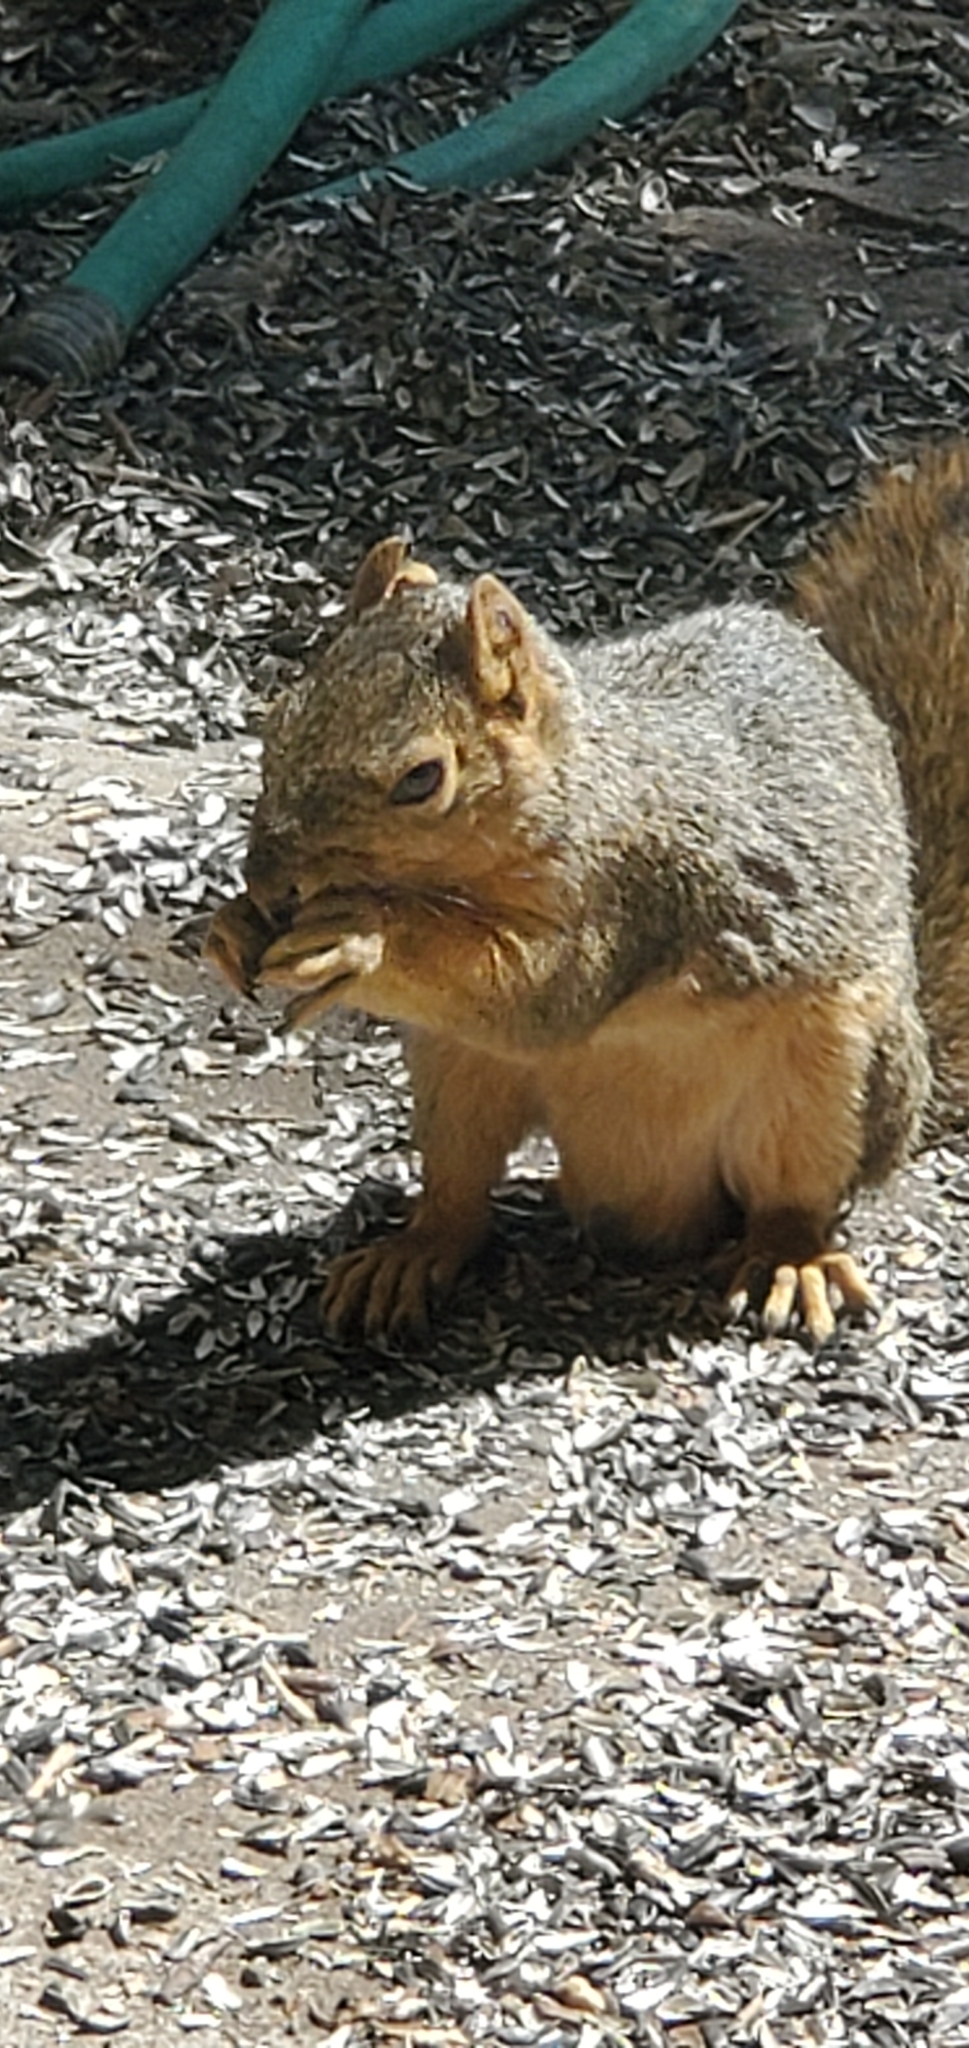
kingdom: Animalia
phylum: Chordata
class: Mammalia
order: Rodentia
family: Sciuridae
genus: Sciurus
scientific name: Sciurus niger
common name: Fox squirrel
